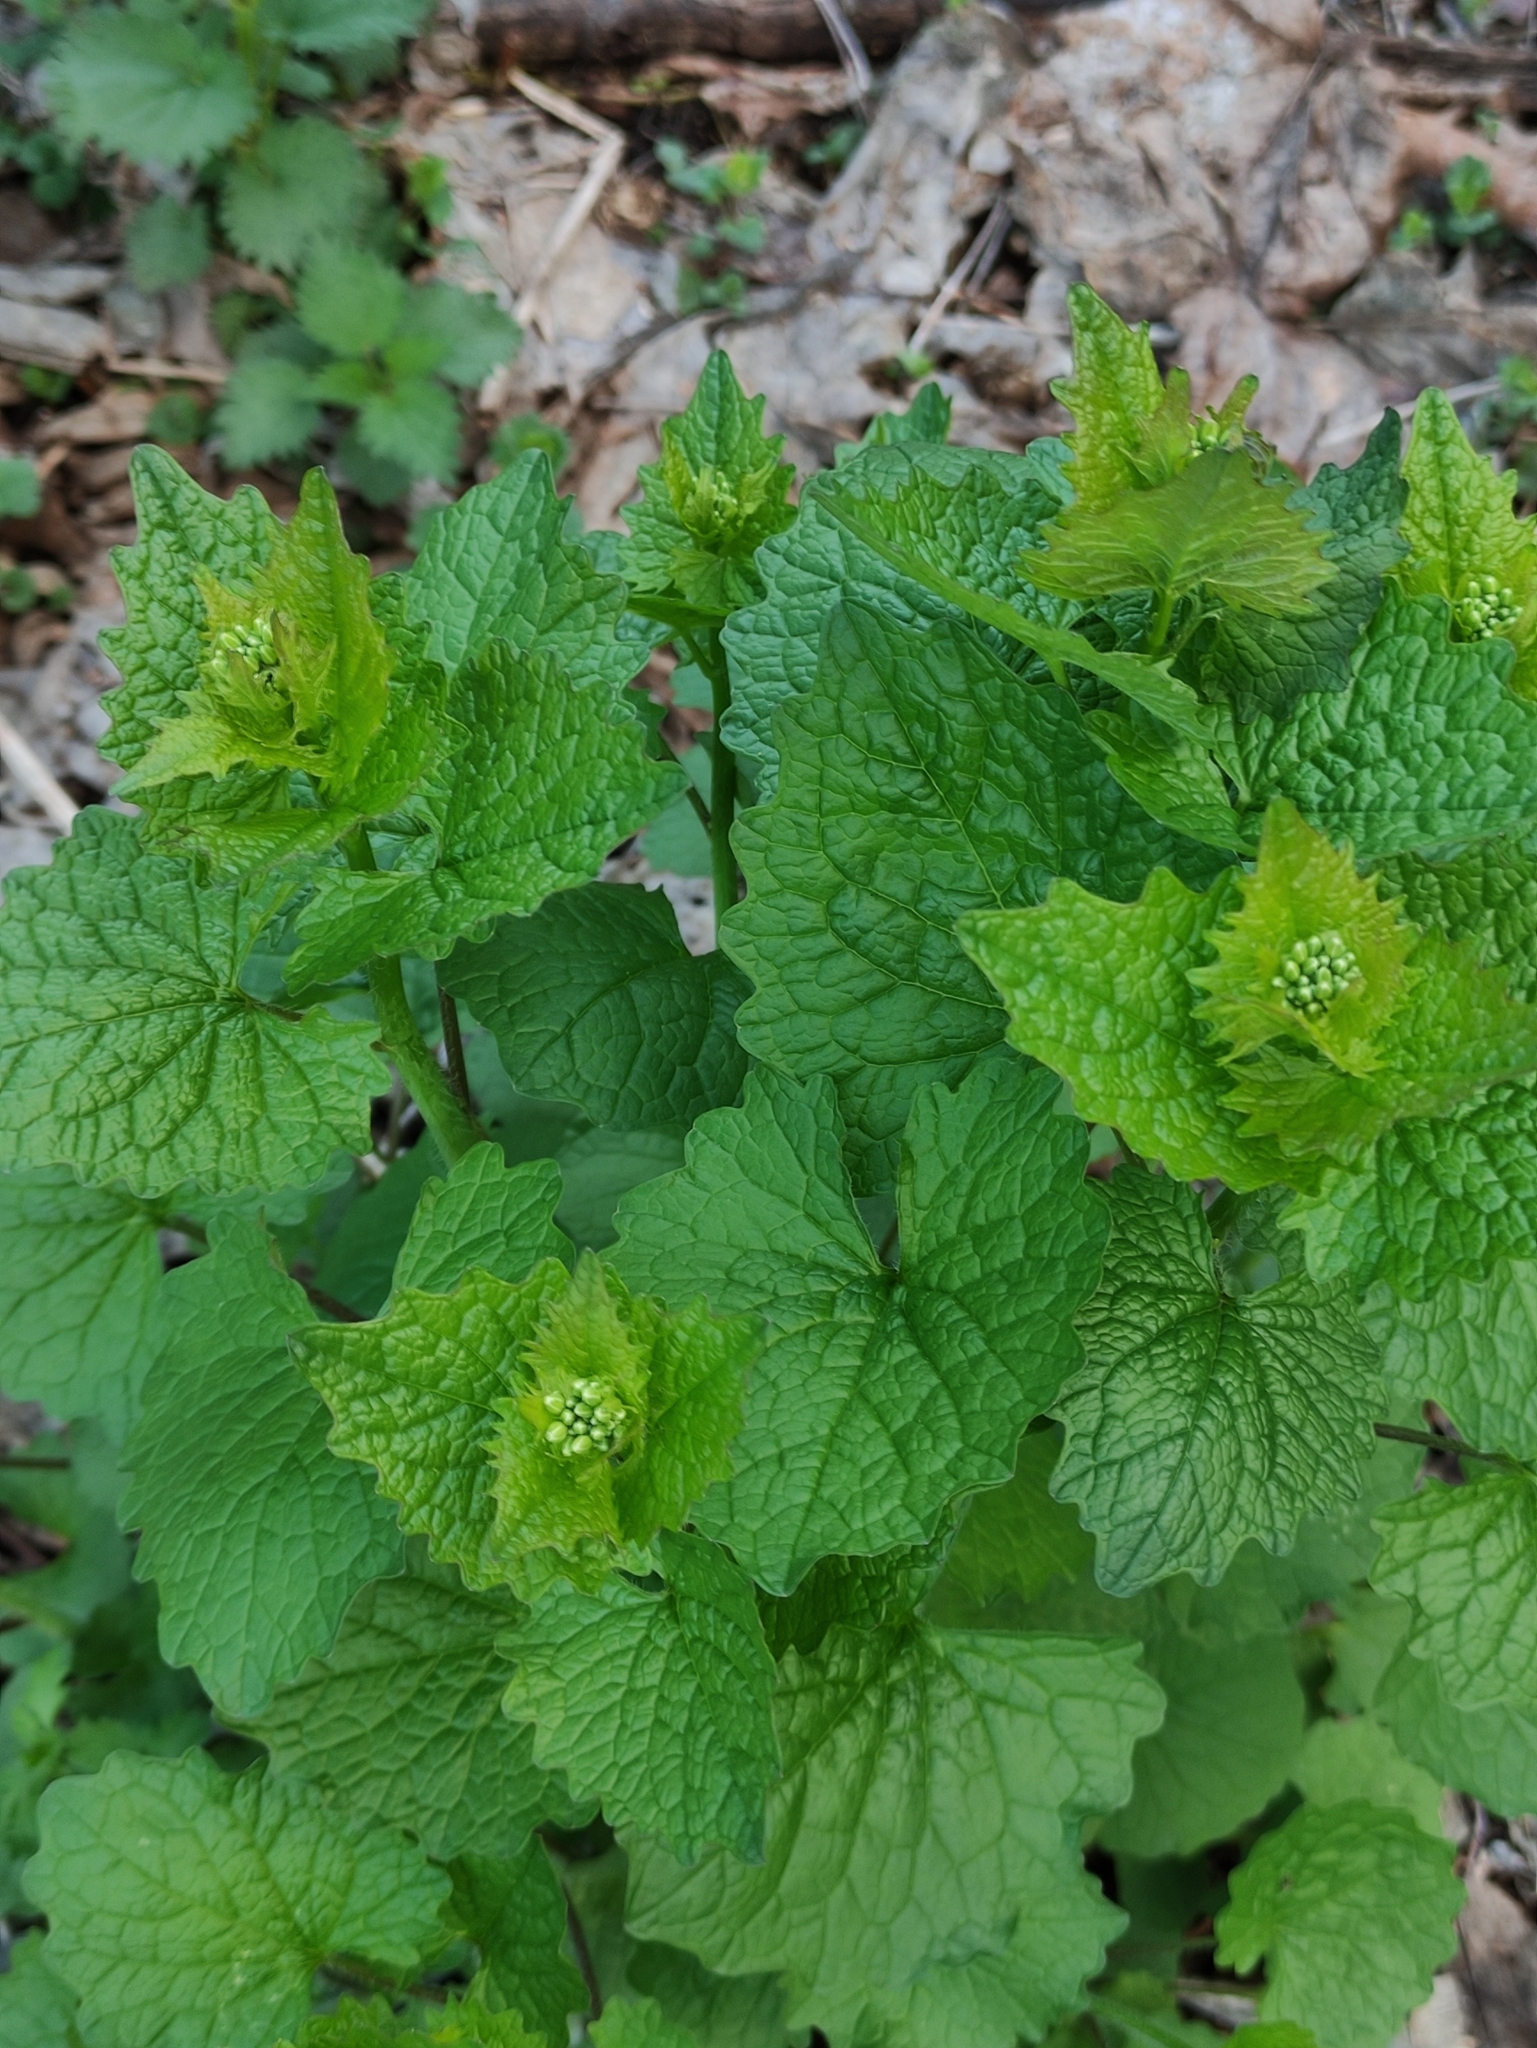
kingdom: Plantae
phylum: Tracheophyta
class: Magnoliopsida
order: Brassicales
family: Brassicaceae
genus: Alliaria
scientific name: Alliaria petiolata
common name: Garlic mustard
